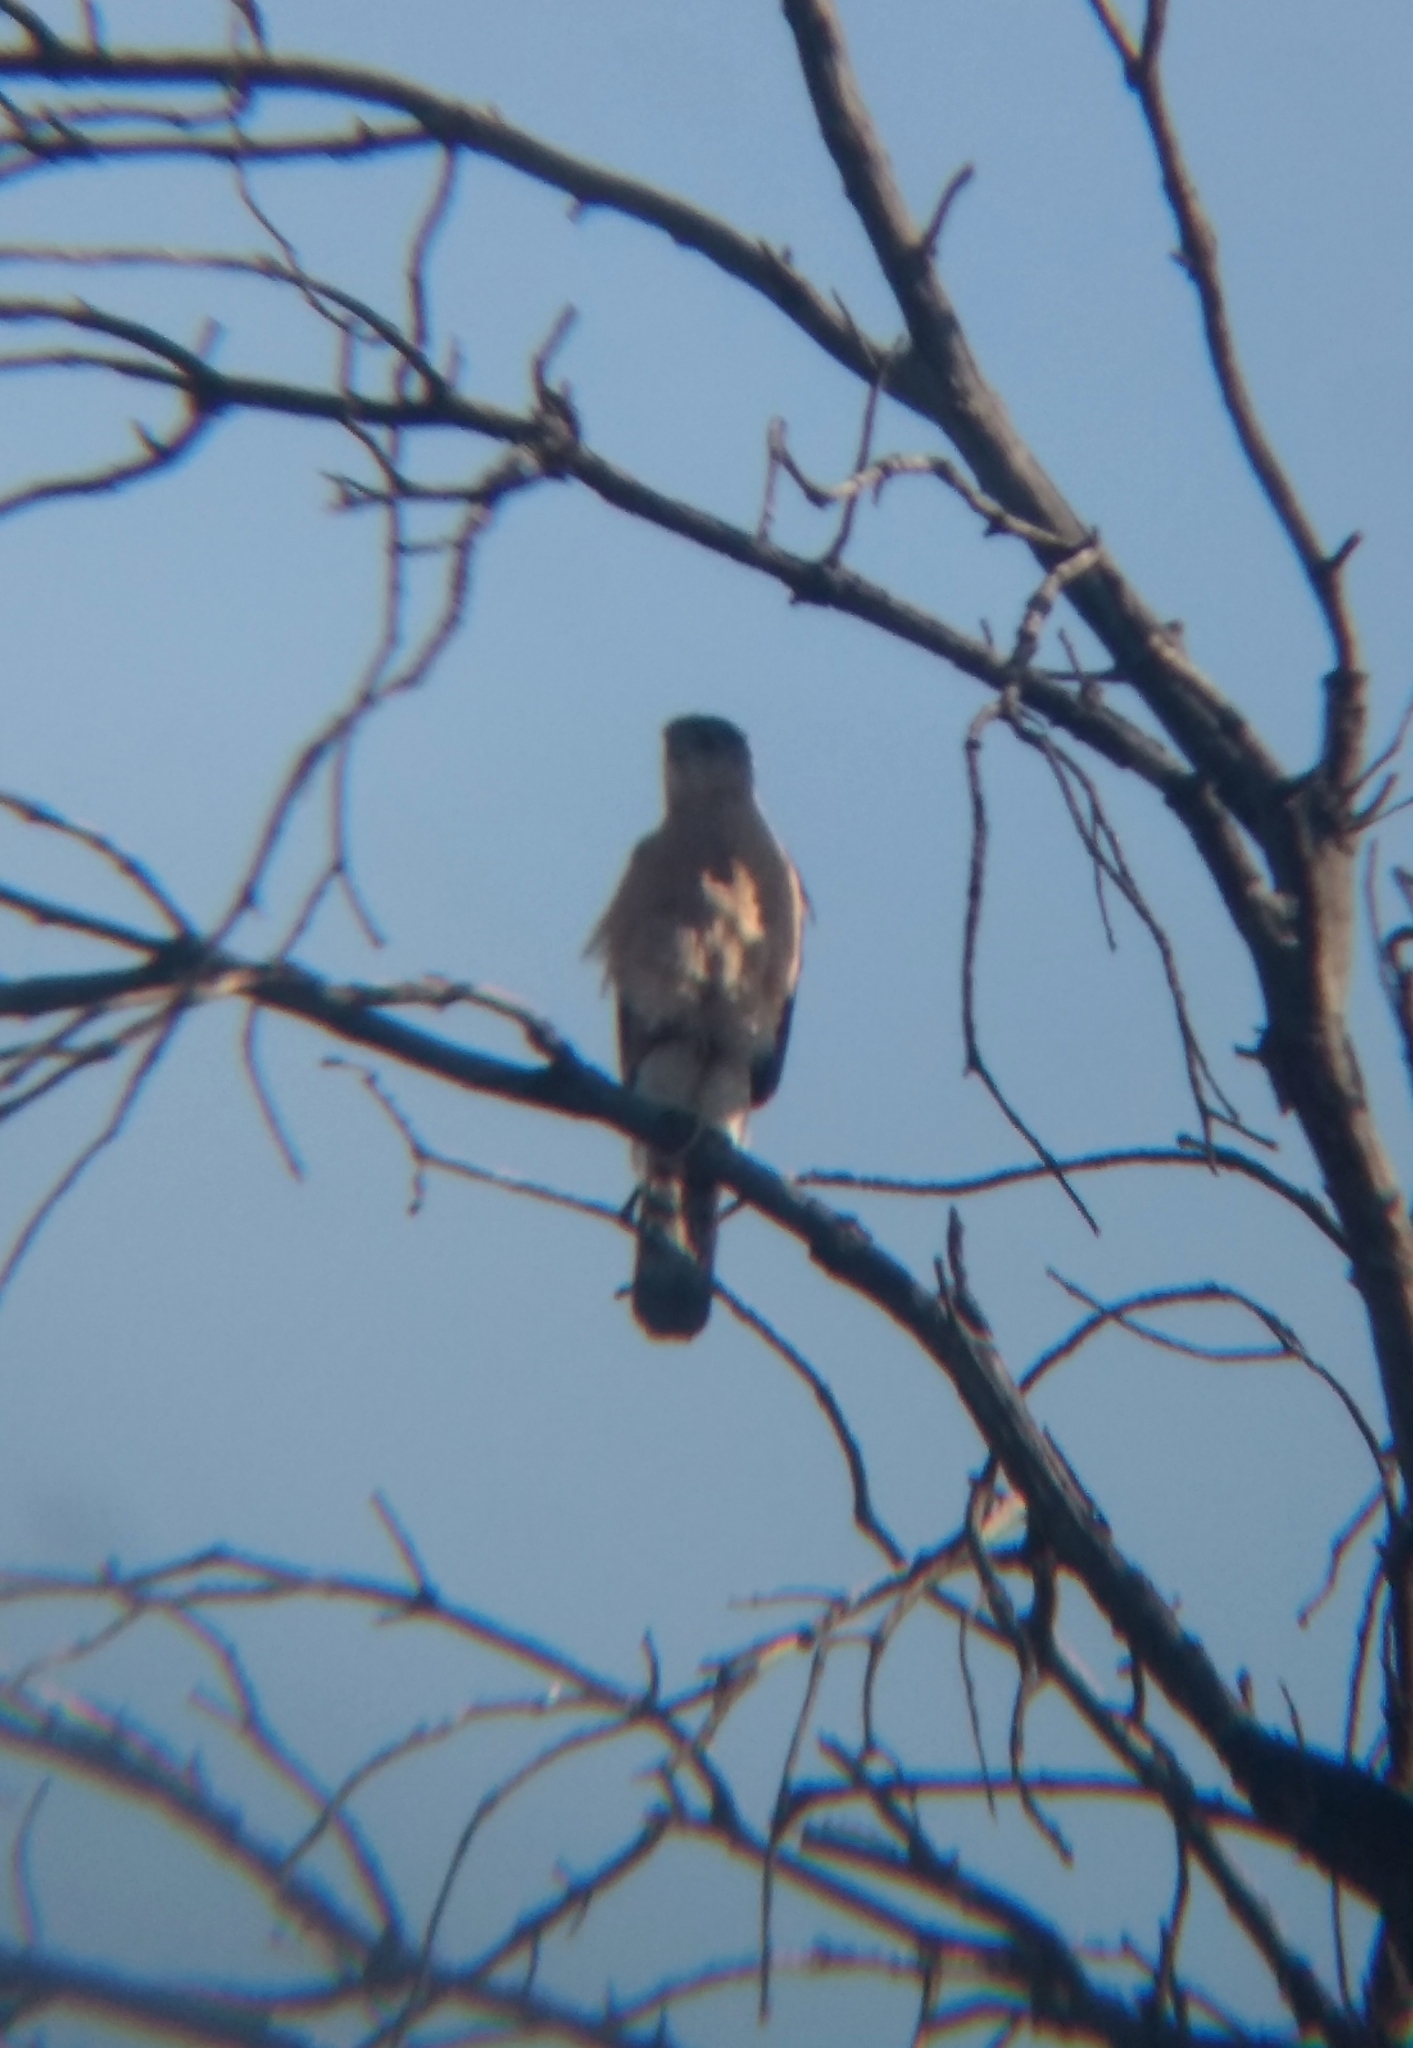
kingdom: Animalia
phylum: Chordata
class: Aves
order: Accipitriformes
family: Accipitridae
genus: Accipiter
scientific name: Accipiter cooperii
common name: Cooper's hawk
